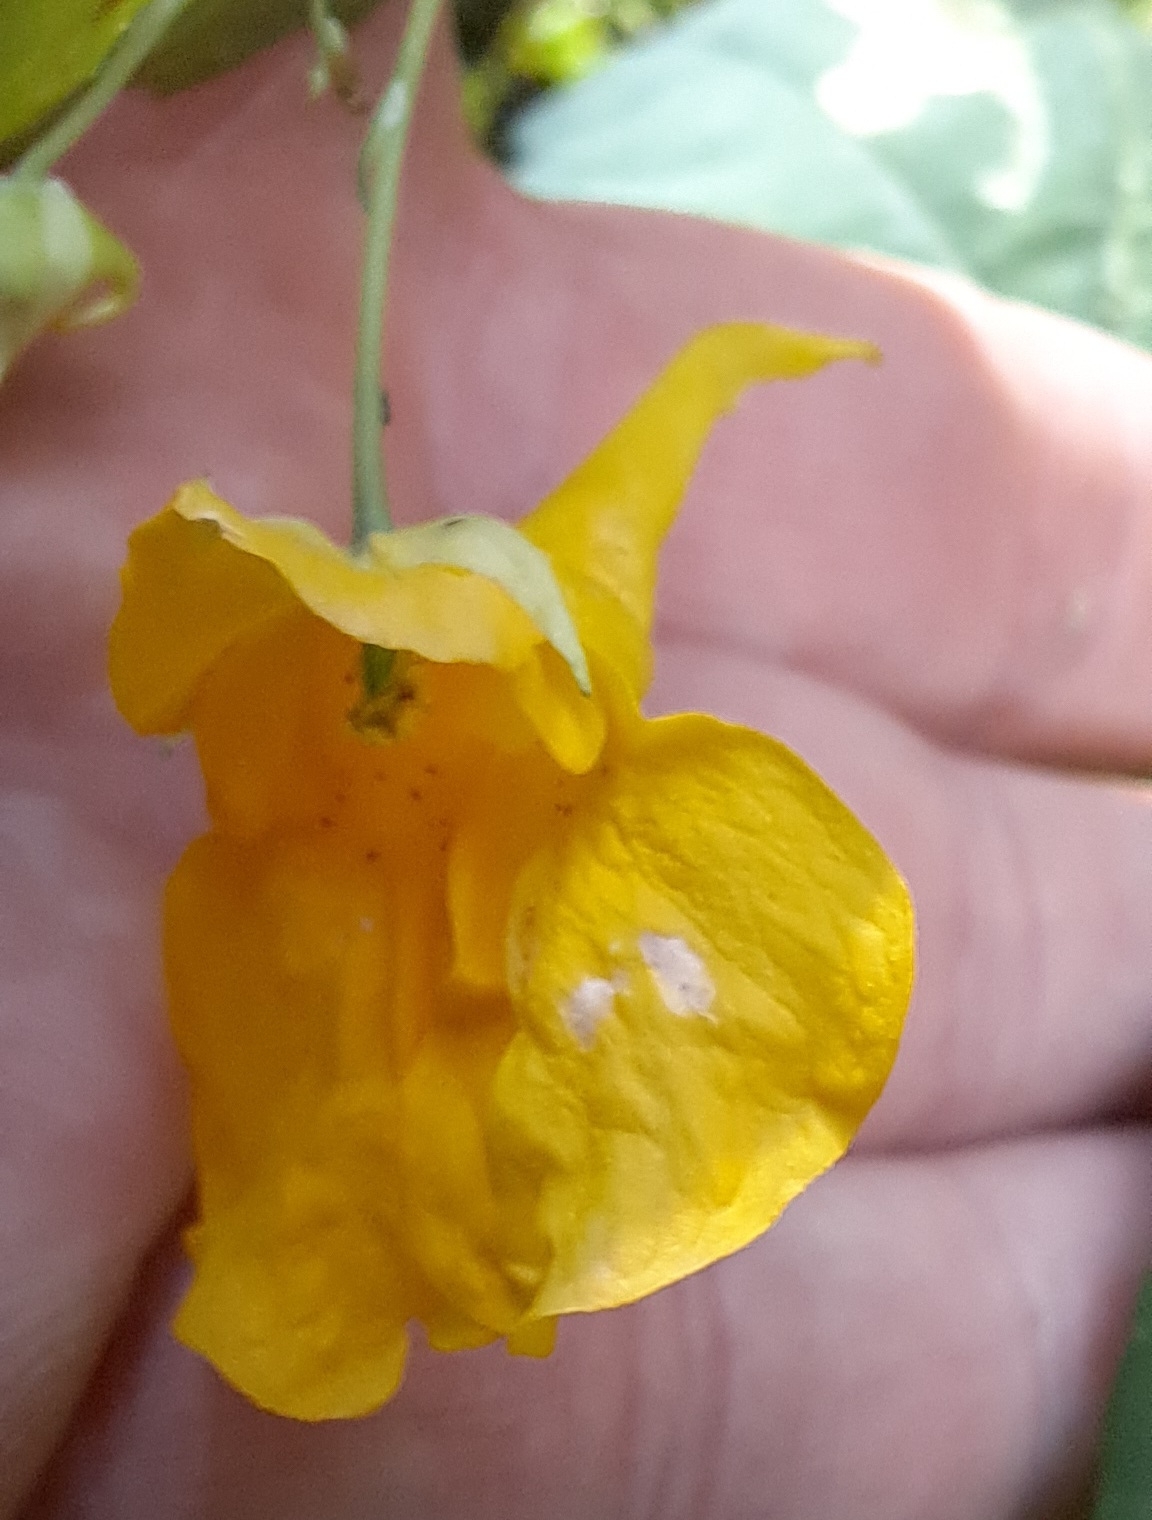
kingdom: Plantae
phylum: Tracheophyta
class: Magnoliopsida
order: Ericales
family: Balsaminaceae
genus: Impatiens
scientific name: Impatiens noli-tangere
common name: Touch-me-not balsam
